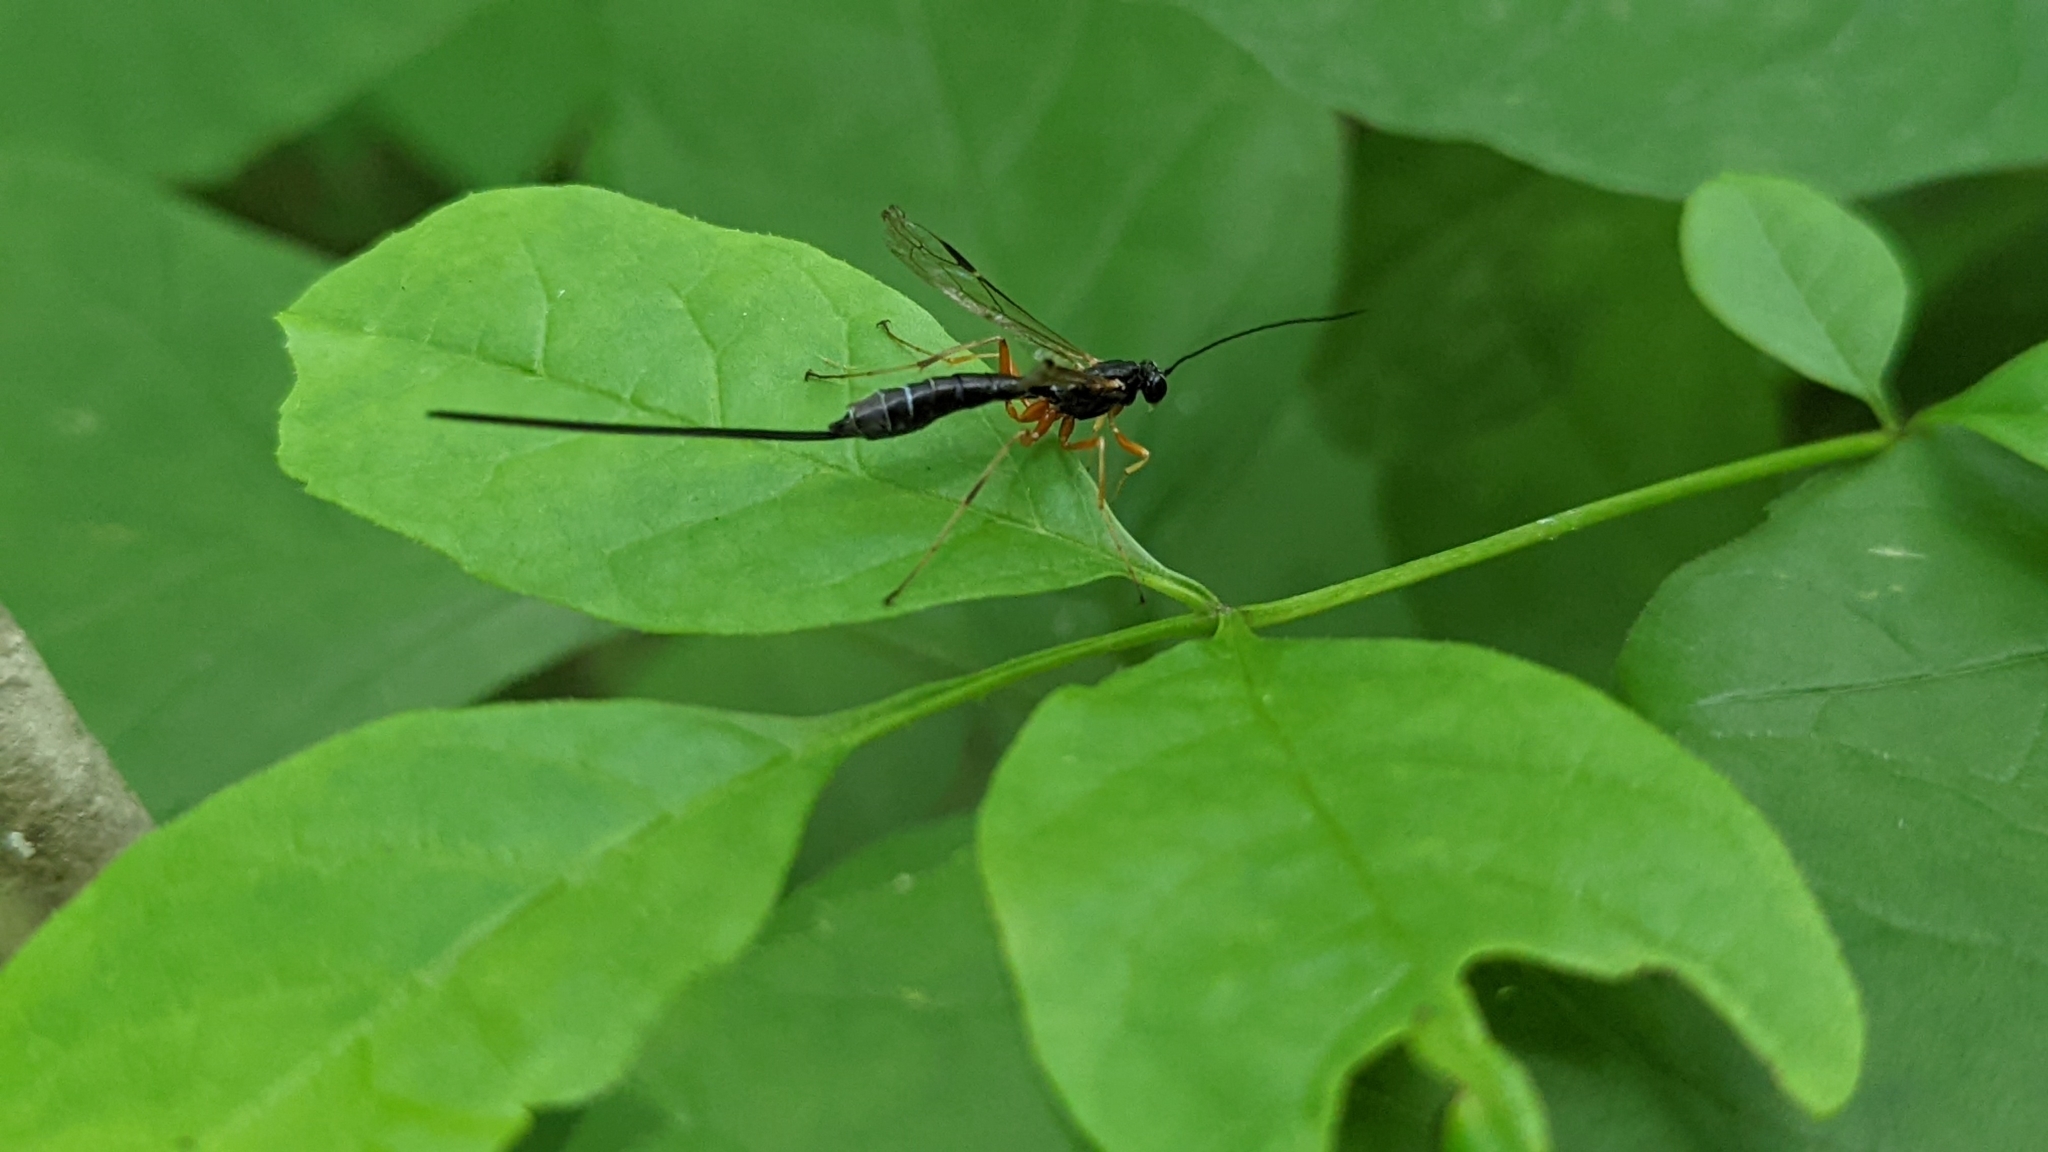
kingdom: Animalia
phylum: Arthropoda
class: Insecta
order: Hymenoptera
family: Ichneumonidae
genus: Rhyssella
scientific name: Rhyssella nitida
